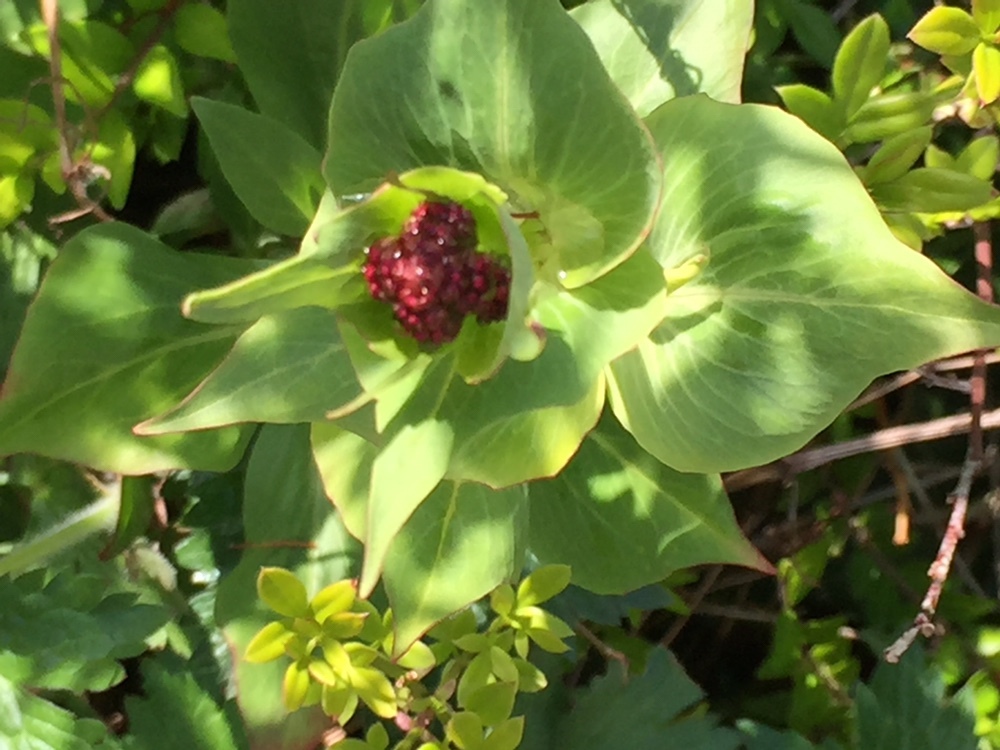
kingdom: Plantae
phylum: Tracheophyta
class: Magnoliopsida
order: Dipsacales
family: Caprifoliaceae
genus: Centranthus
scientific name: Centranthus ruber
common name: Red valerian
